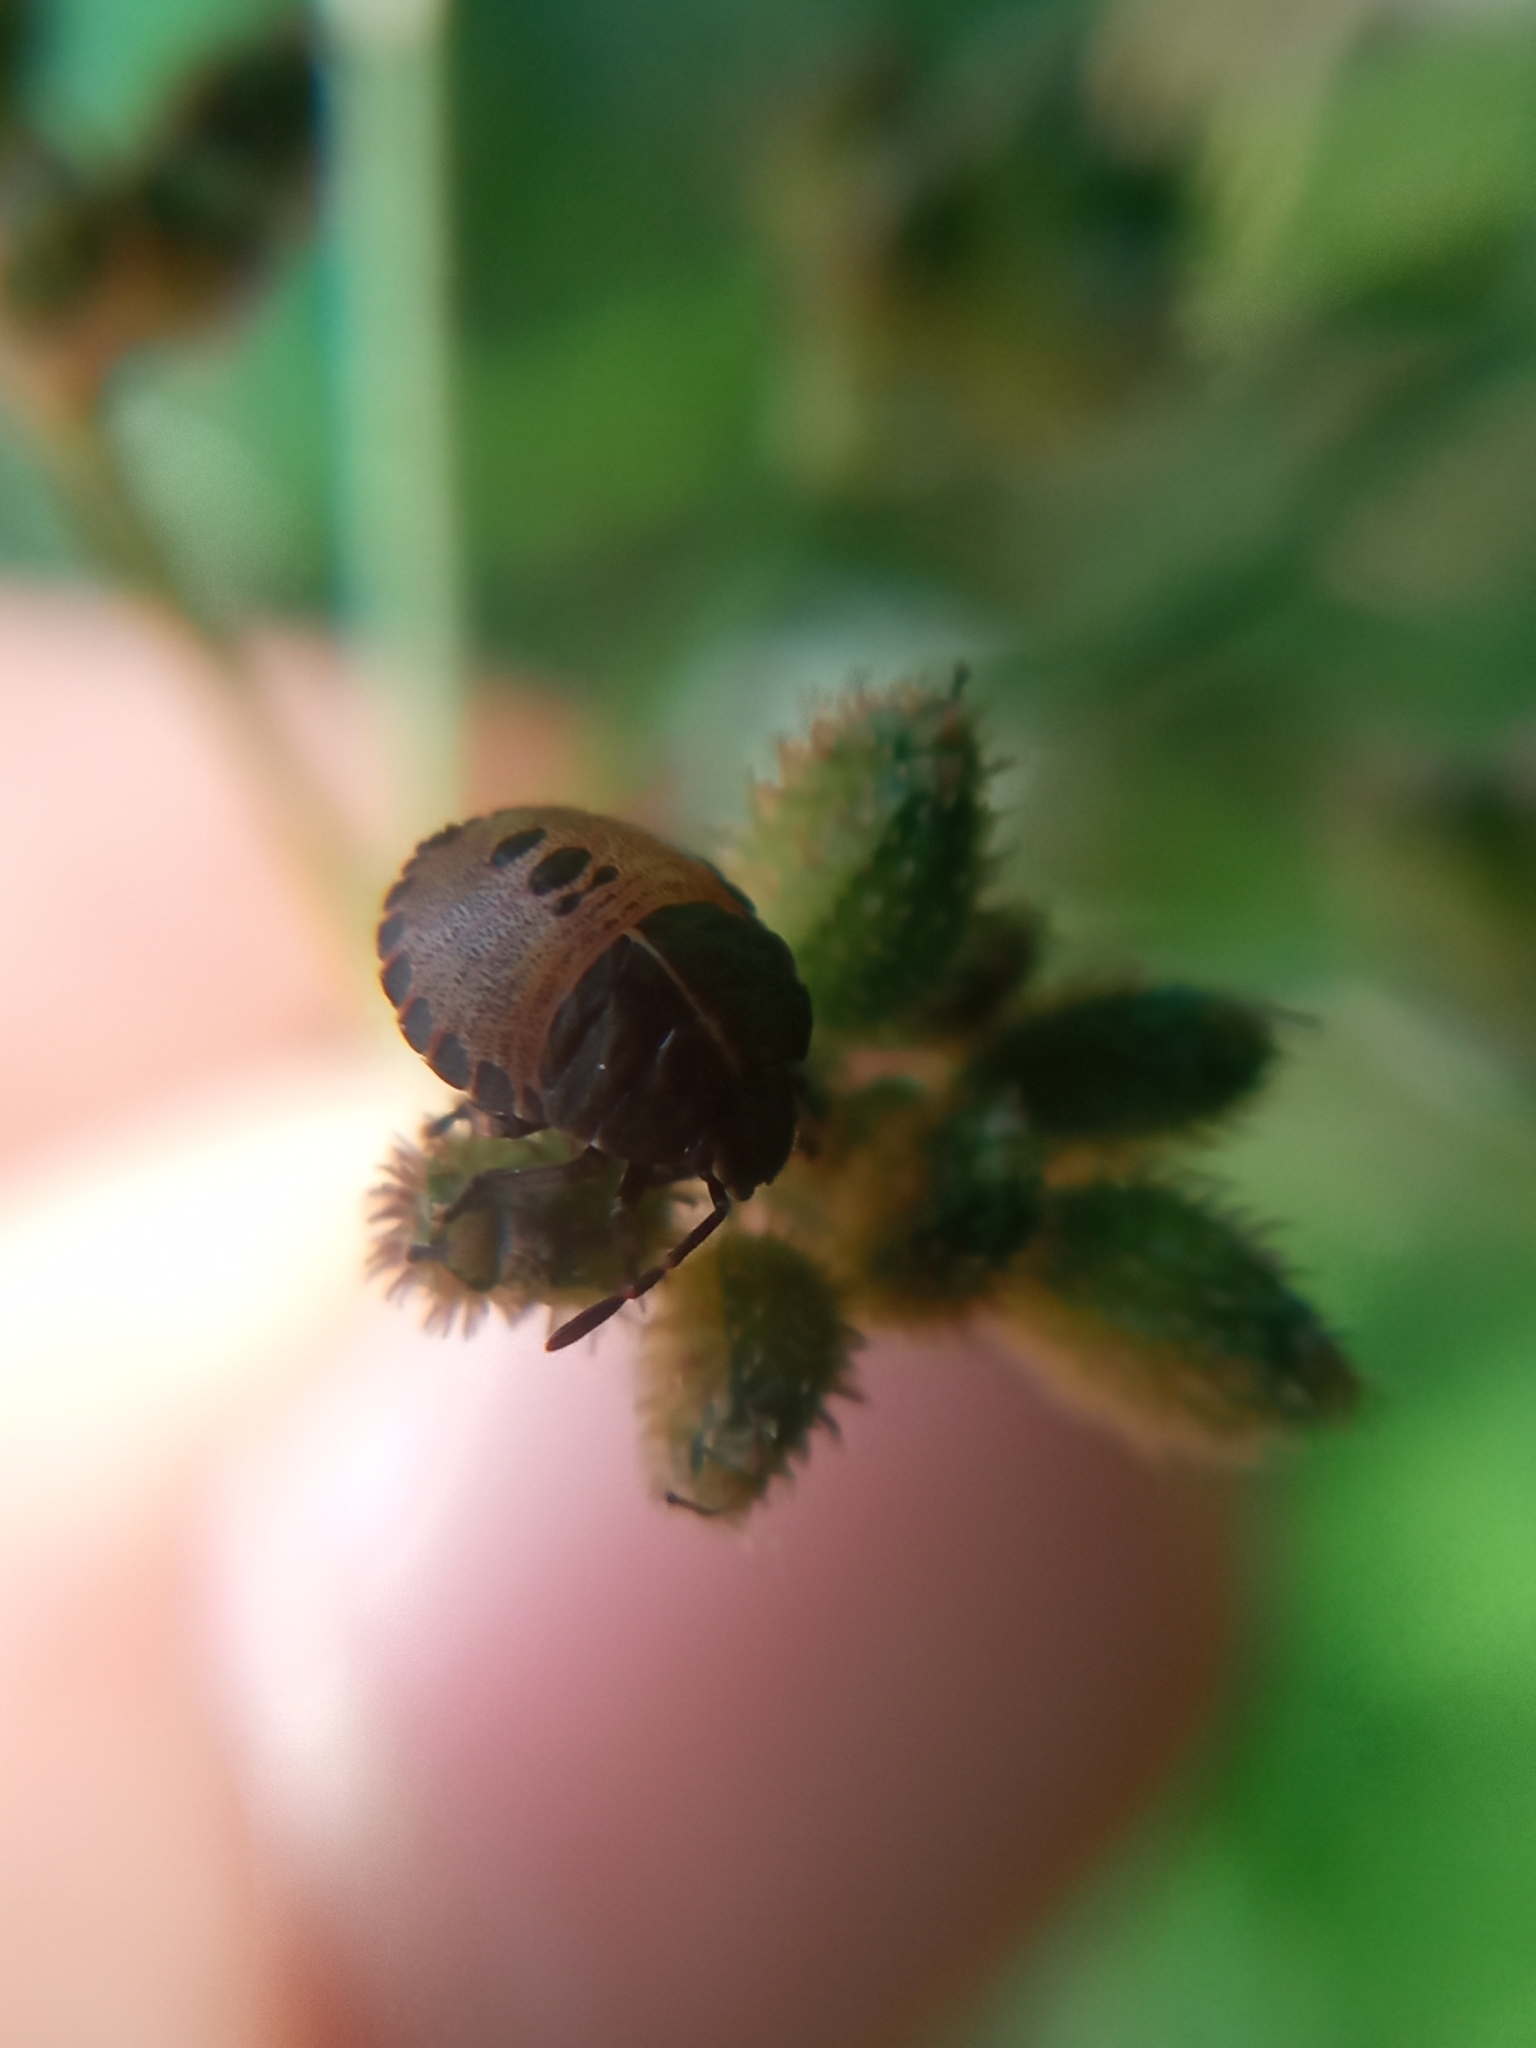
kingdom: Animalia
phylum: Arthropoda
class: Insecta
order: Hemiptera
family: Pentatomidae
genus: Graphosoma
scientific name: Graphosoma italicum
